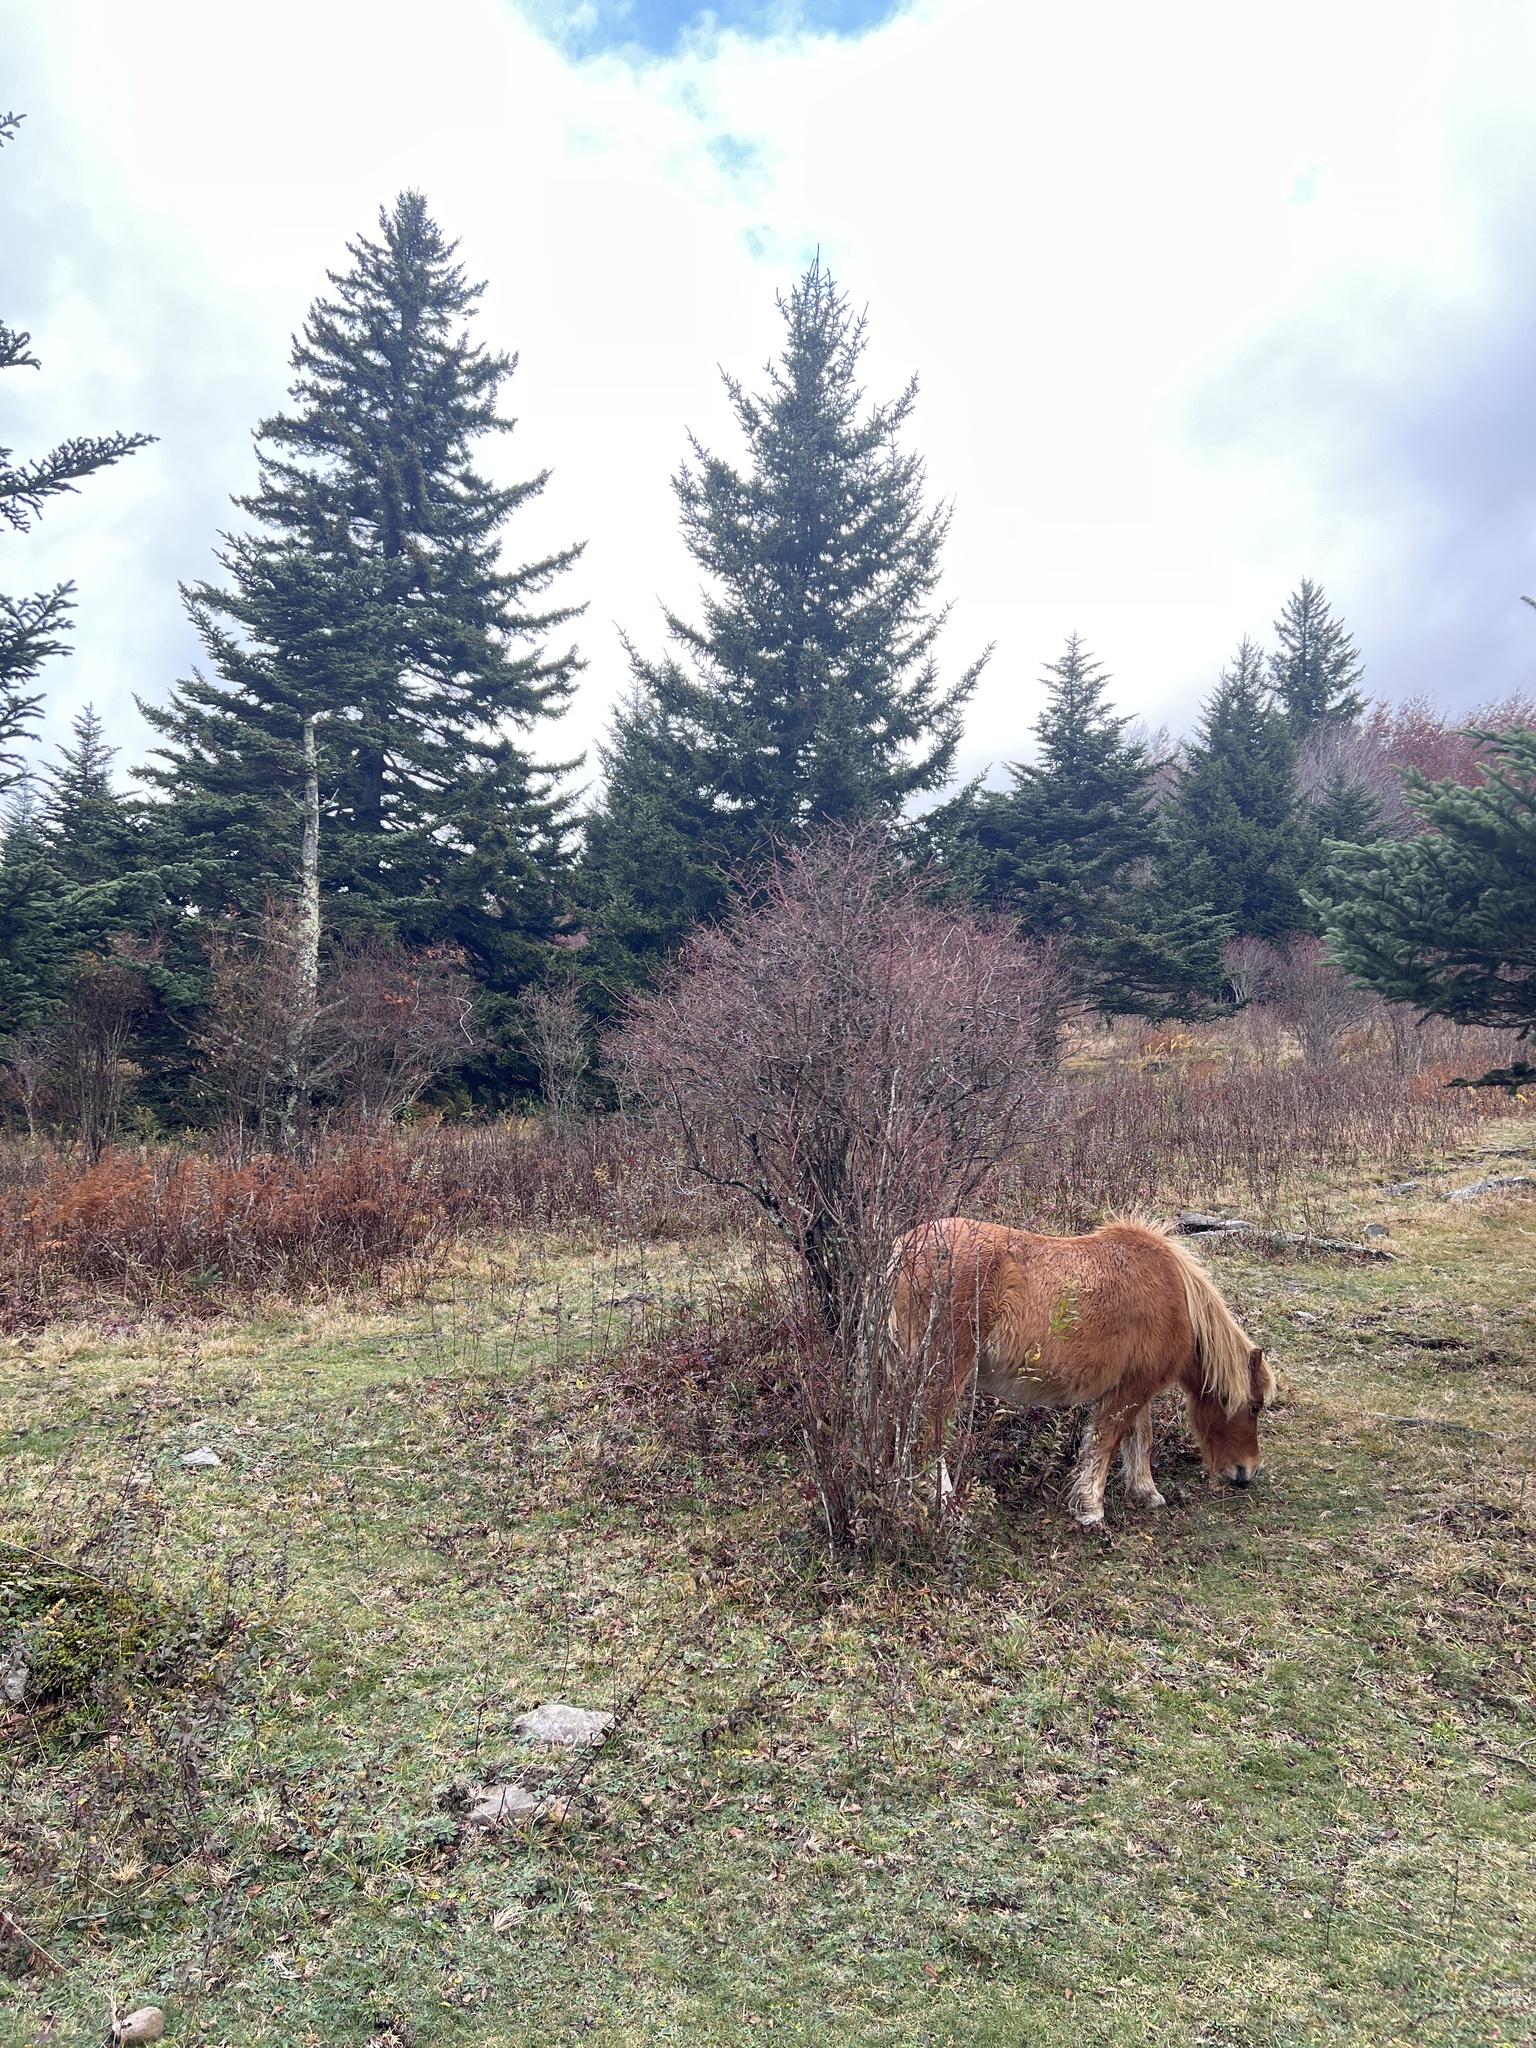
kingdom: Animalia
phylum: Chordata
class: Mammalia
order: Perissodactyla
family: Equidae
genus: Equus
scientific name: Equus caballus
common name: Horse
